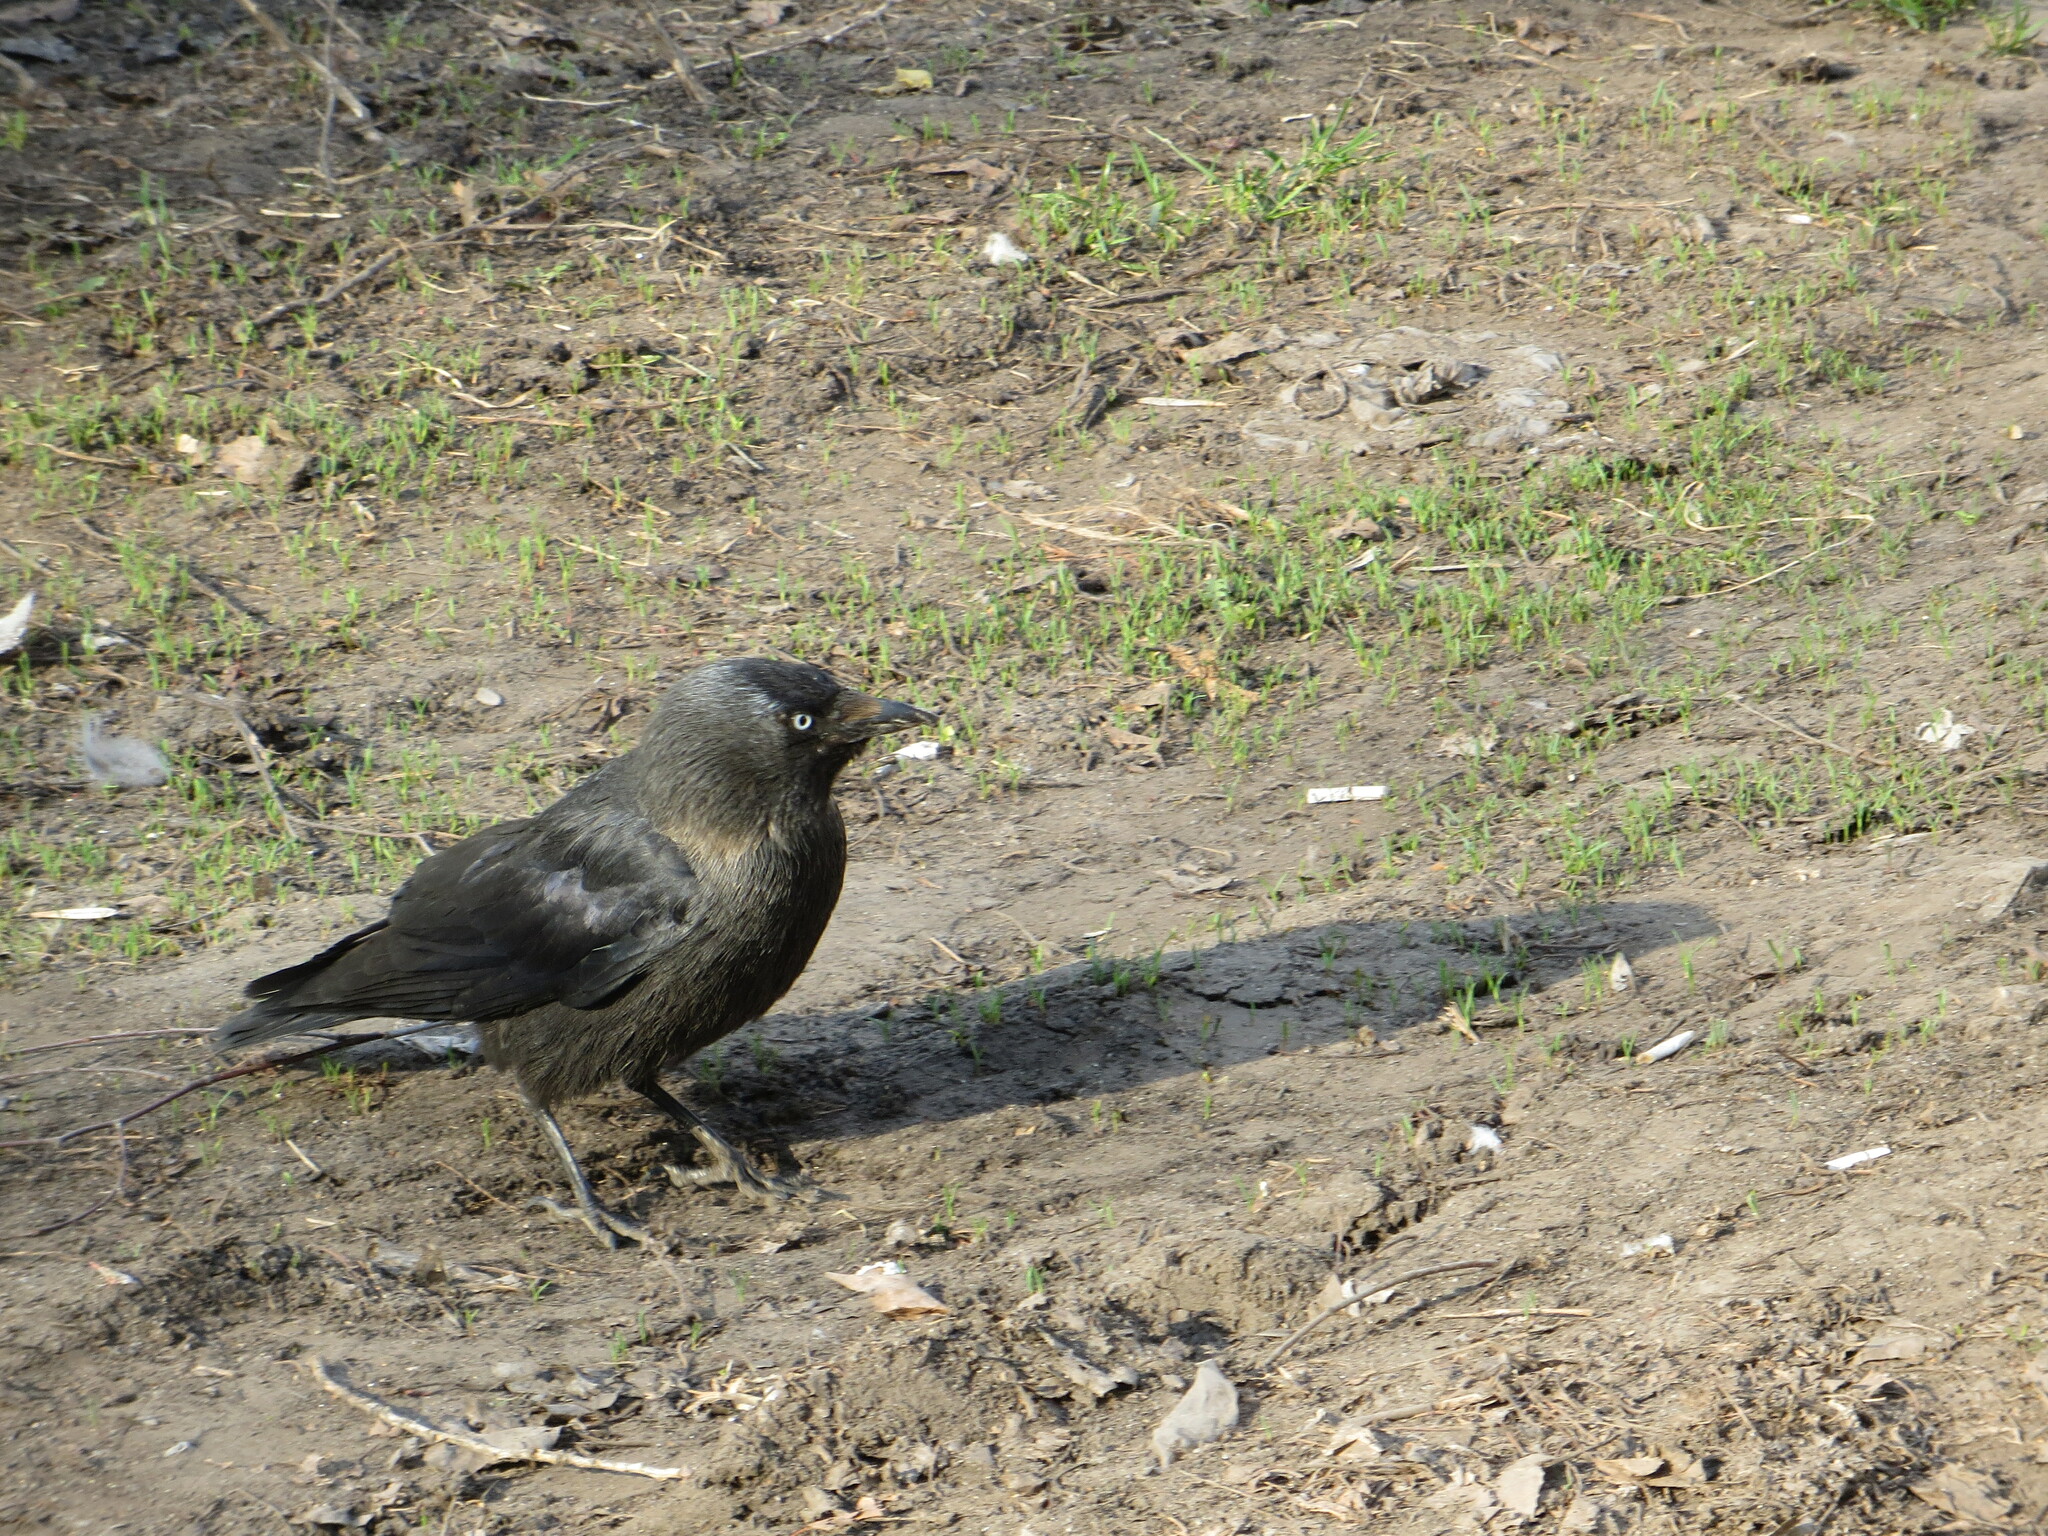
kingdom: Animalia
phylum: Chordata
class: Aves
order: Passeriformes
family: Corvidae
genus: Coloeus
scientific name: Coloeus monedula
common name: Western jackdaw
